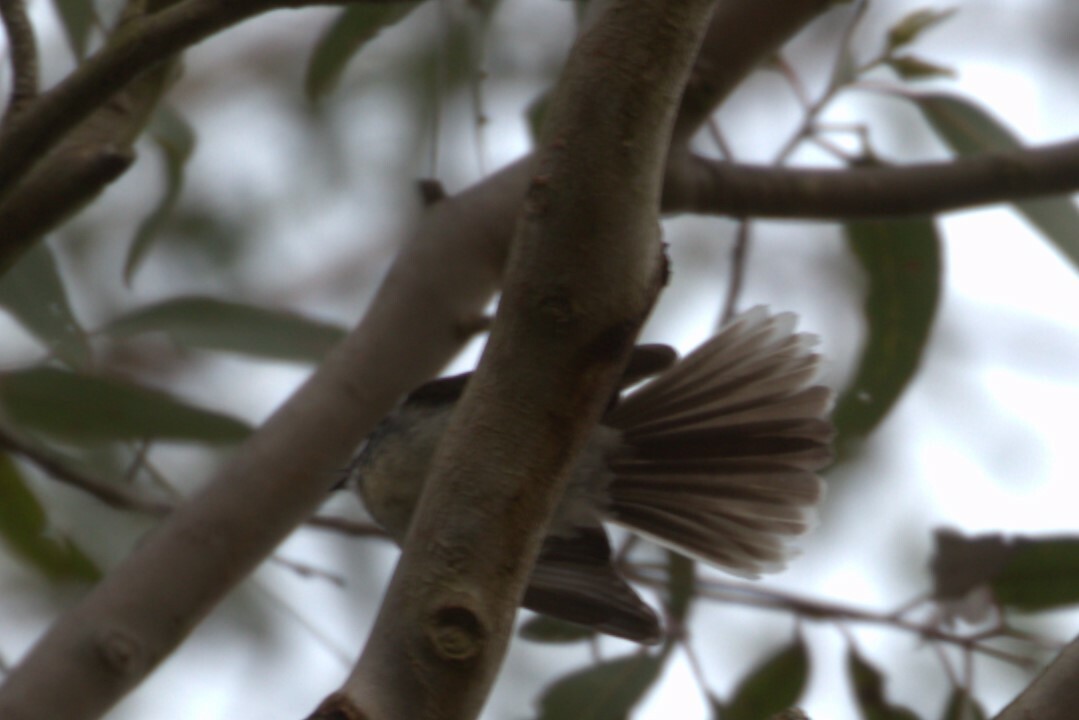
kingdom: Animalia
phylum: Chordata
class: Aves
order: Passeriformes
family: Rhipiduridae
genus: Rhipidura
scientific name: Rhipidura albiscapa
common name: Grey fantail
